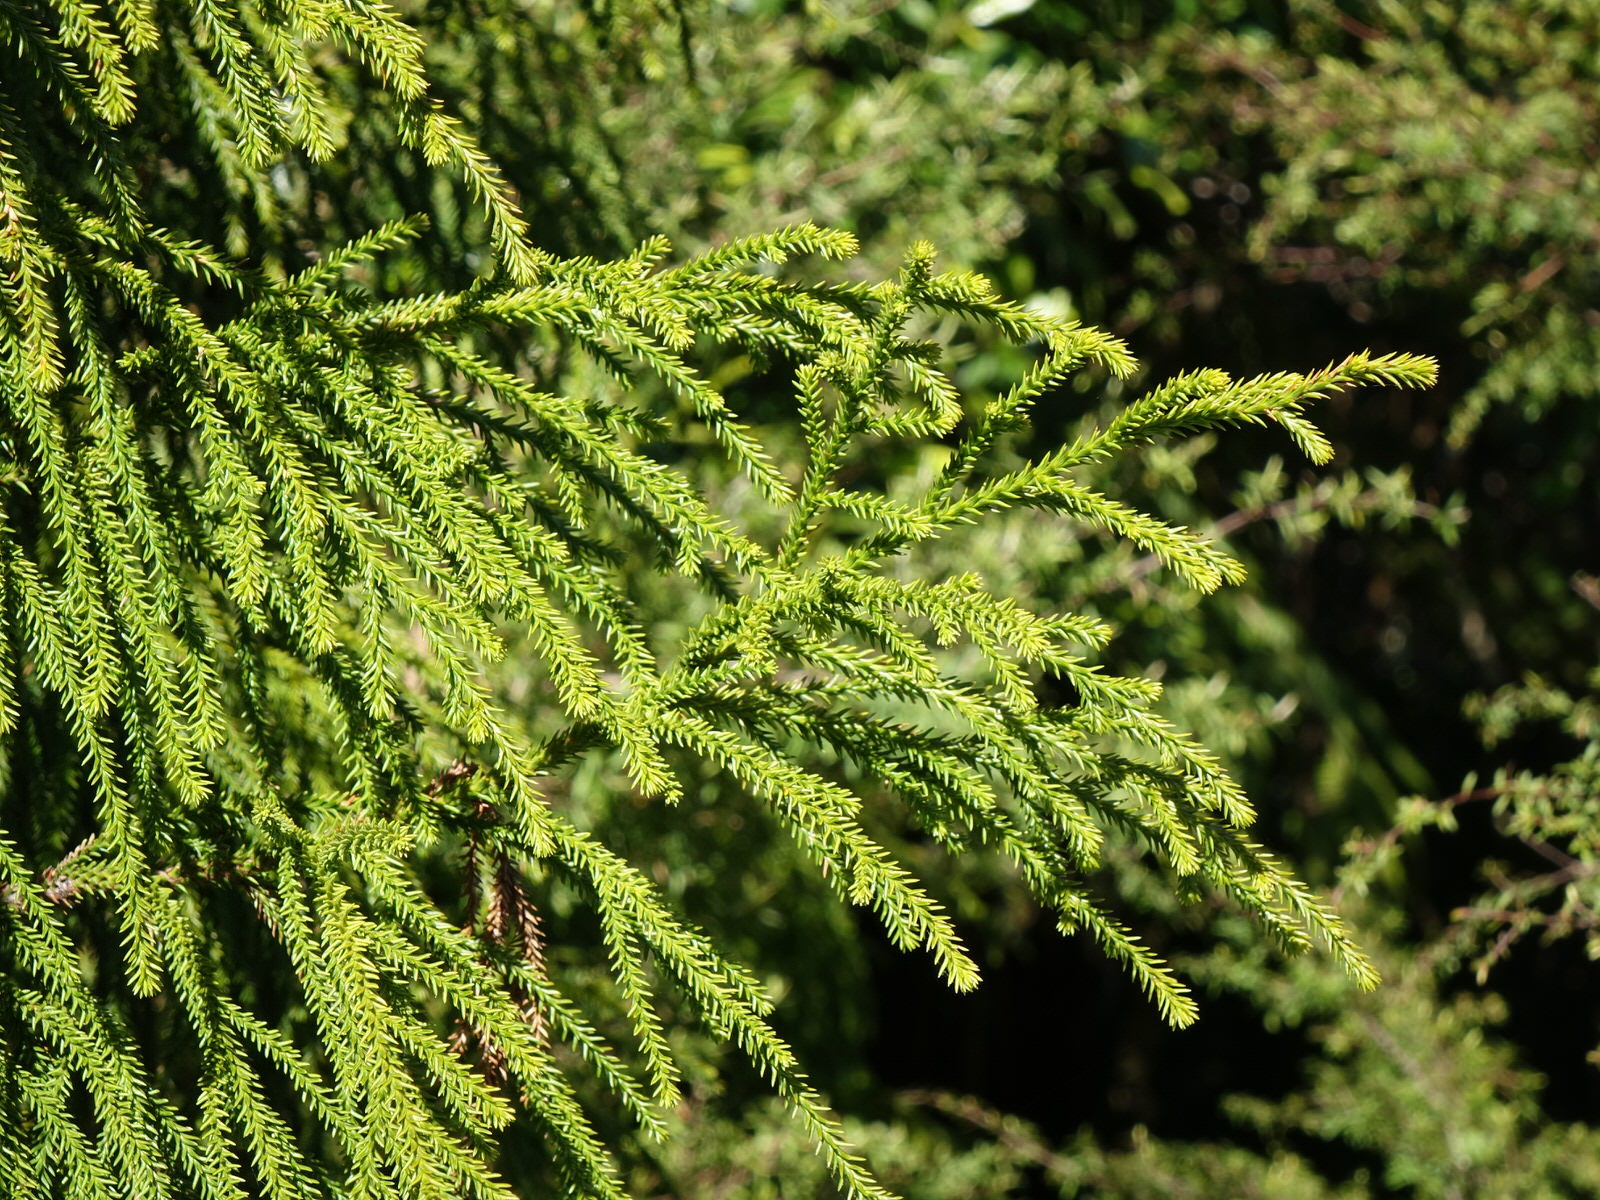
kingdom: Plantae
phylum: Tracheophyta
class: Pinopsida
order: Pinales
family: Podocarpaceae
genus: Dacrydium
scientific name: Dacrydium cupressinum
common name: Red pine
